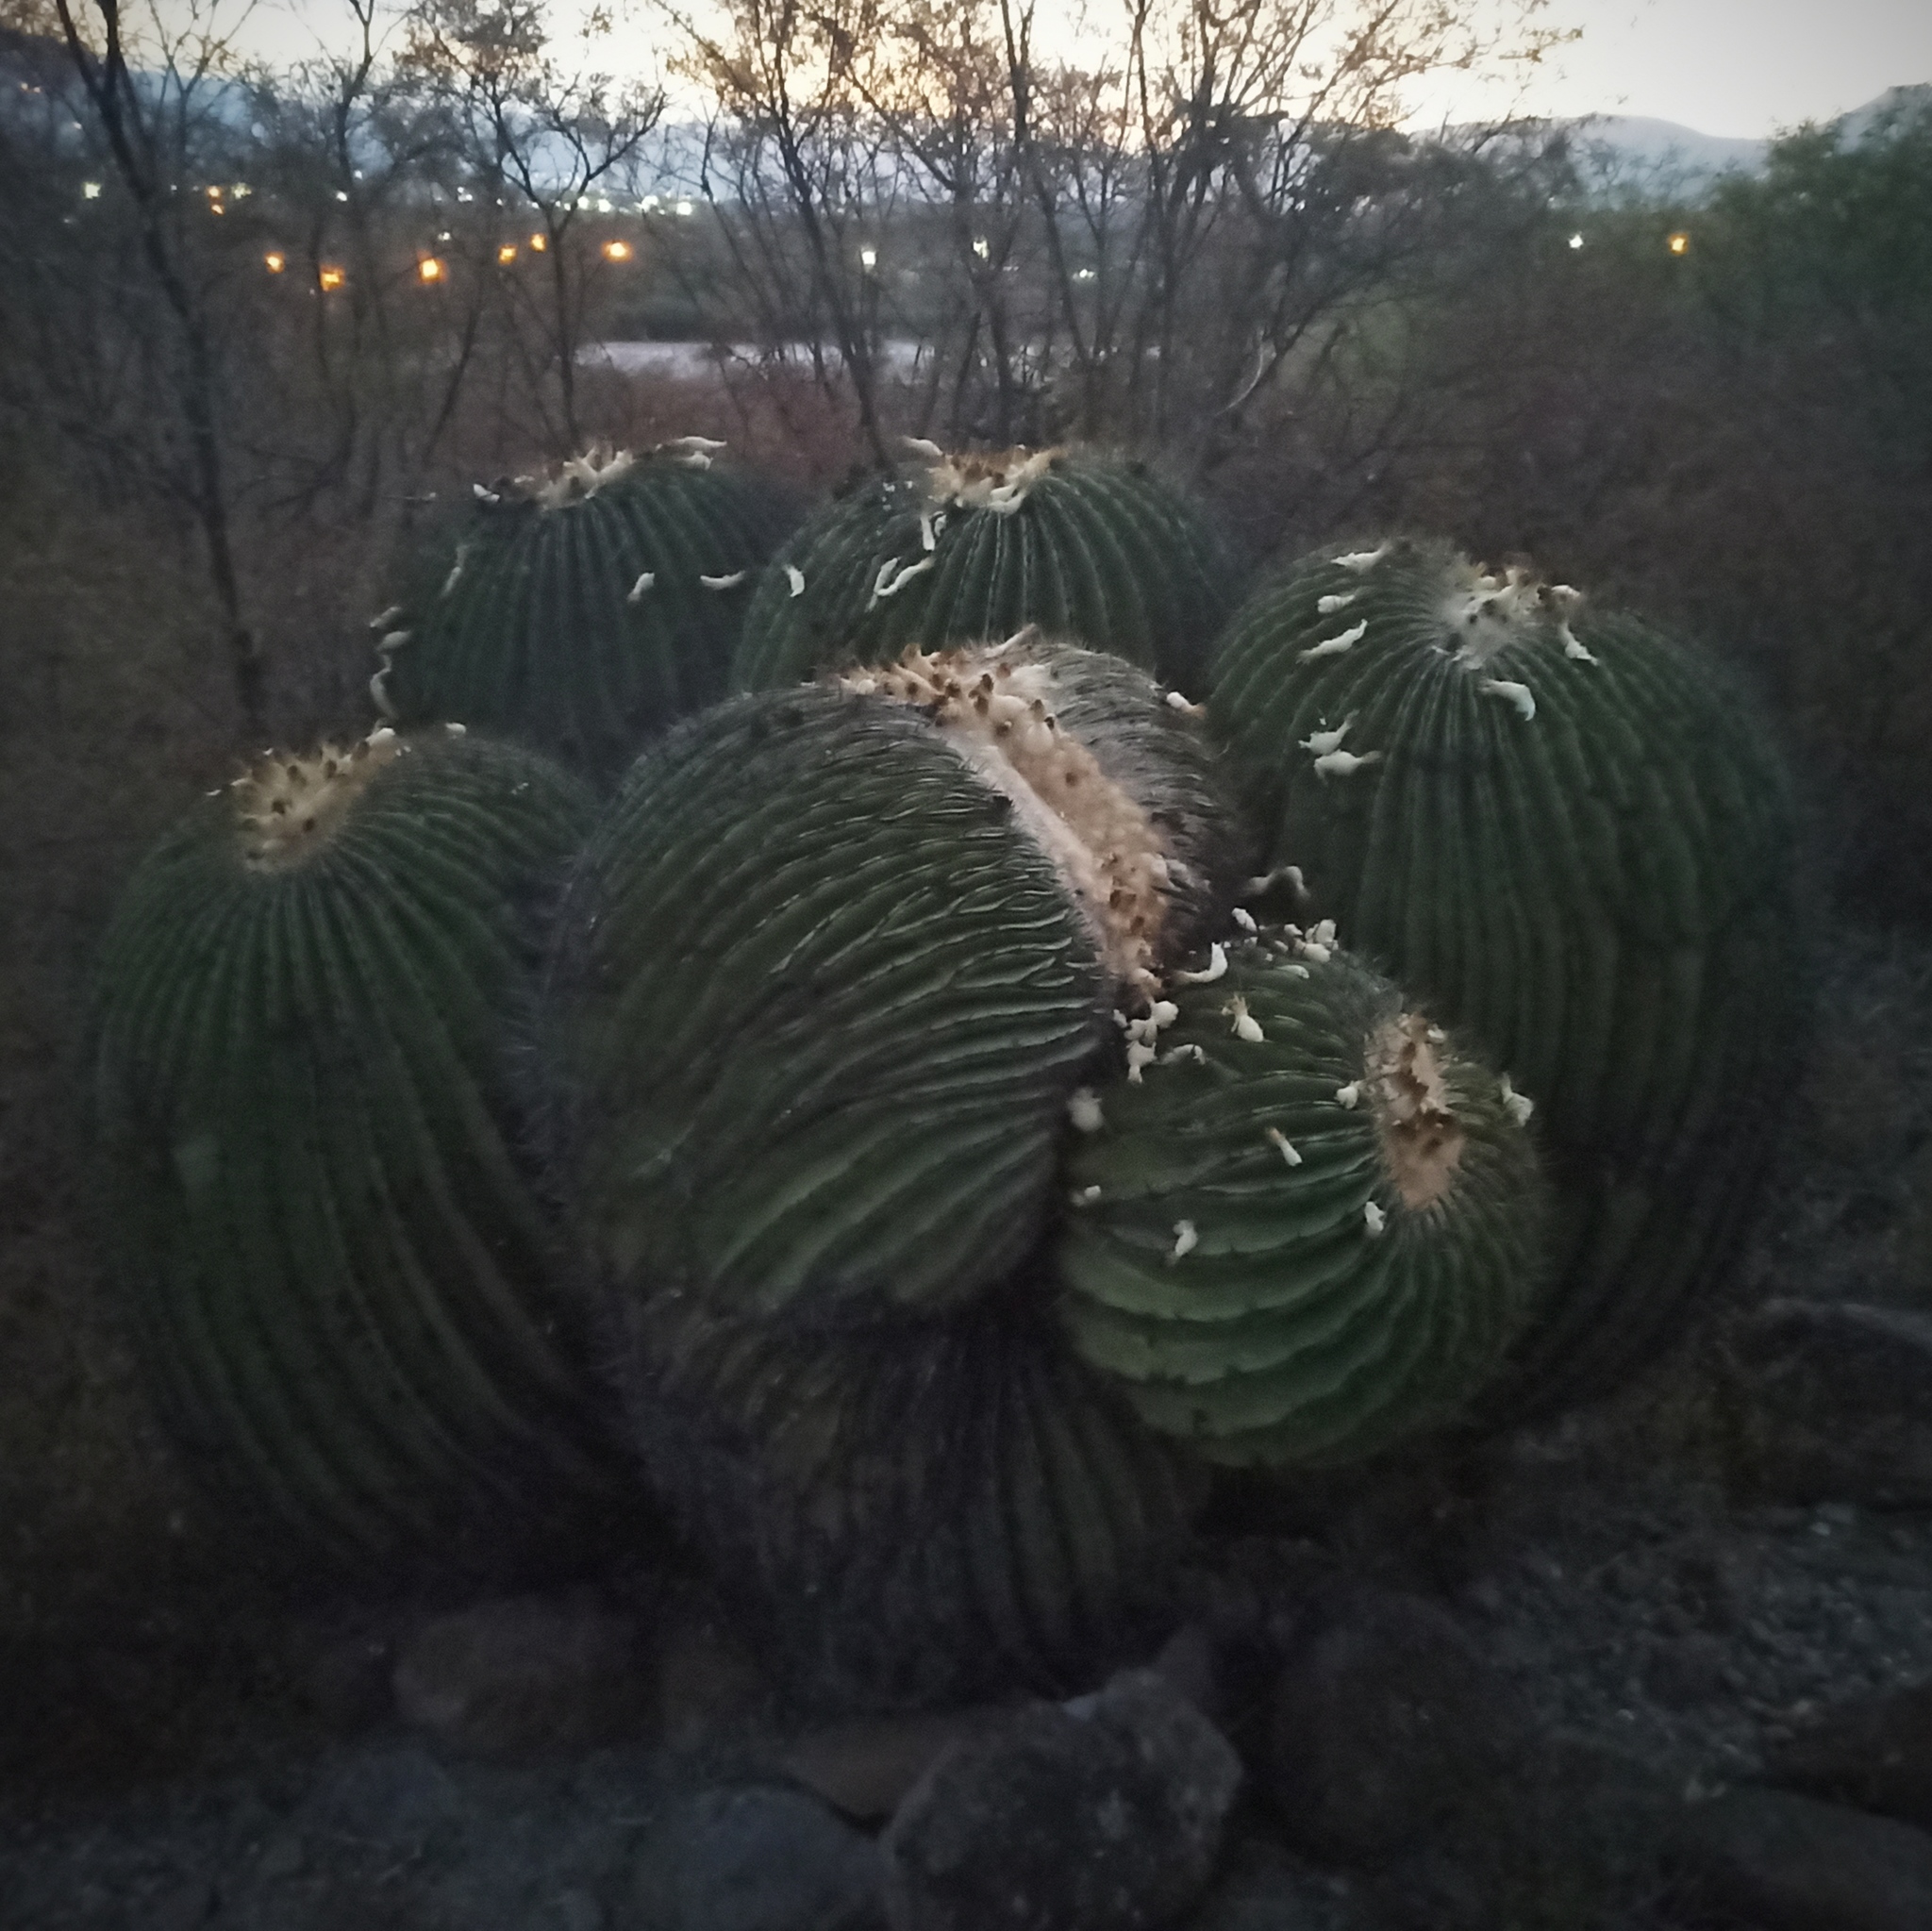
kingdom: Plantae
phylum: Tracheophyta
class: Magnoliopsida
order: Caryophyllales
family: Cactaceae
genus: Echinocactus
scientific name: Echinocactus platyacanthus
